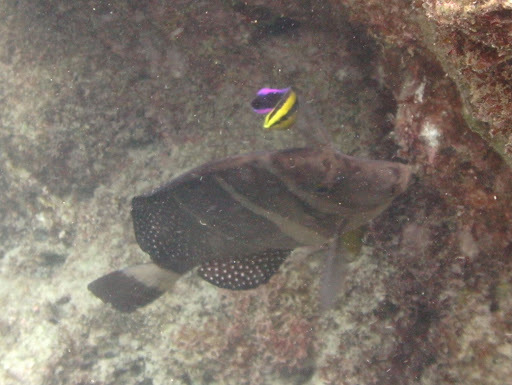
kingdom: Animalia
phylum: Chordata
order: Perciformes
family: Labridae
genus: Labroides
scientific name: Labroides phthirophagus
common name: Cleaner wrasse
